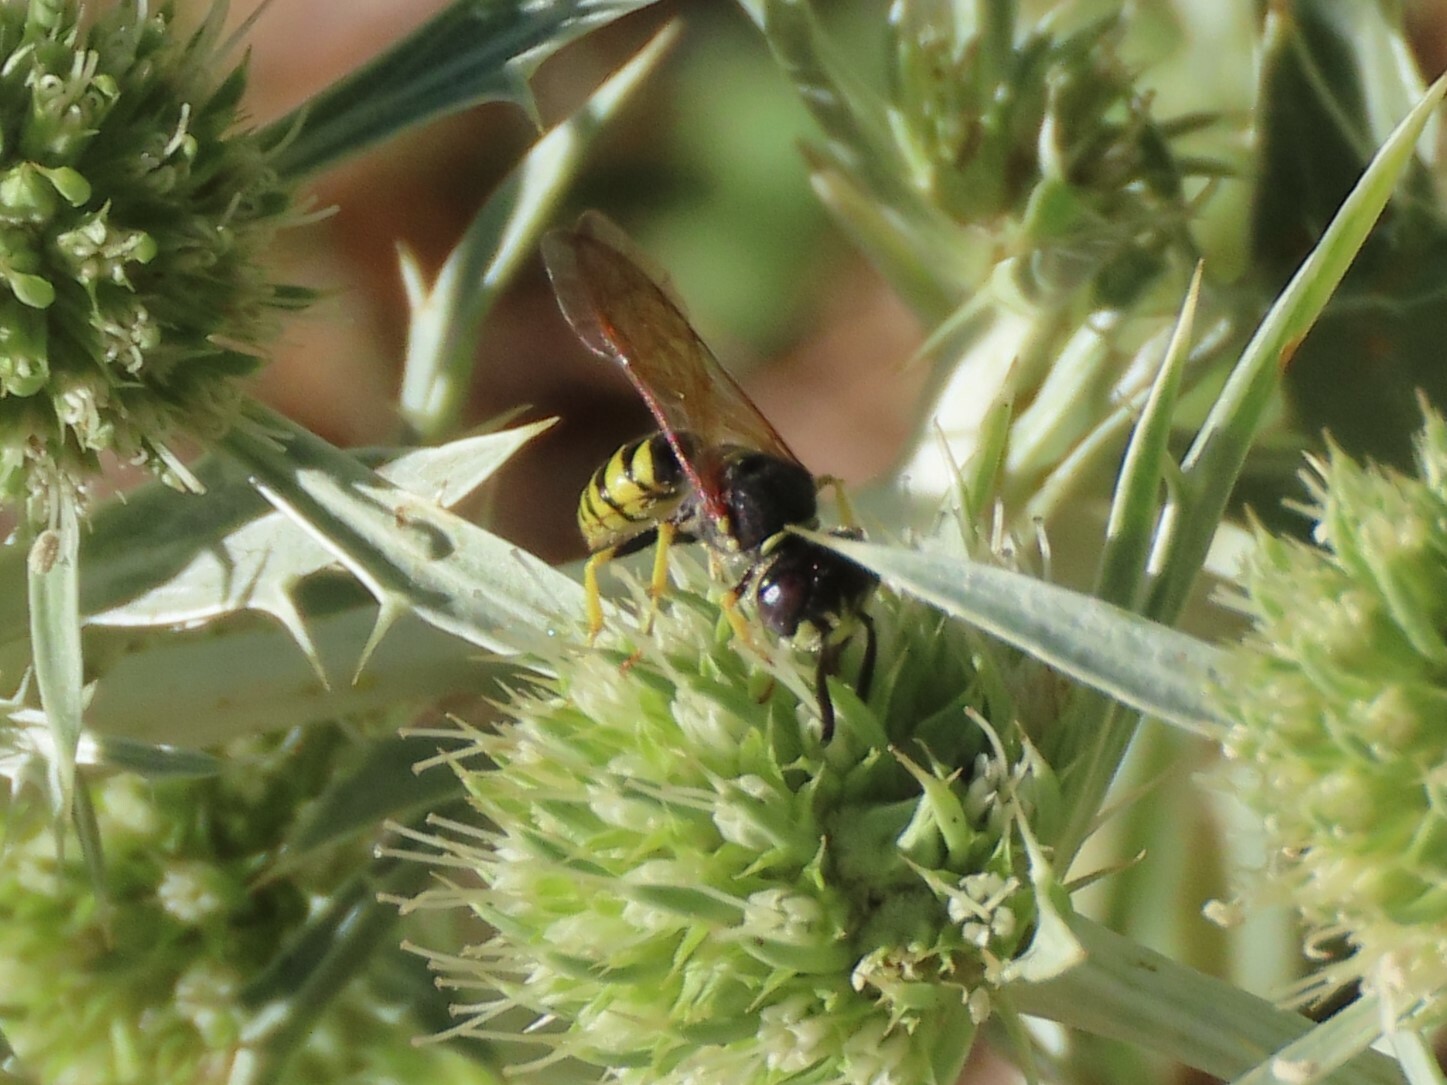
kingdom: Animalia
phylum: Arthropoda
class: Insecta
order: Hymenoptera
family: Crabronidae
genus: Philanthus
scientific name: Philanthus triangulum
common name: Bee wolf
